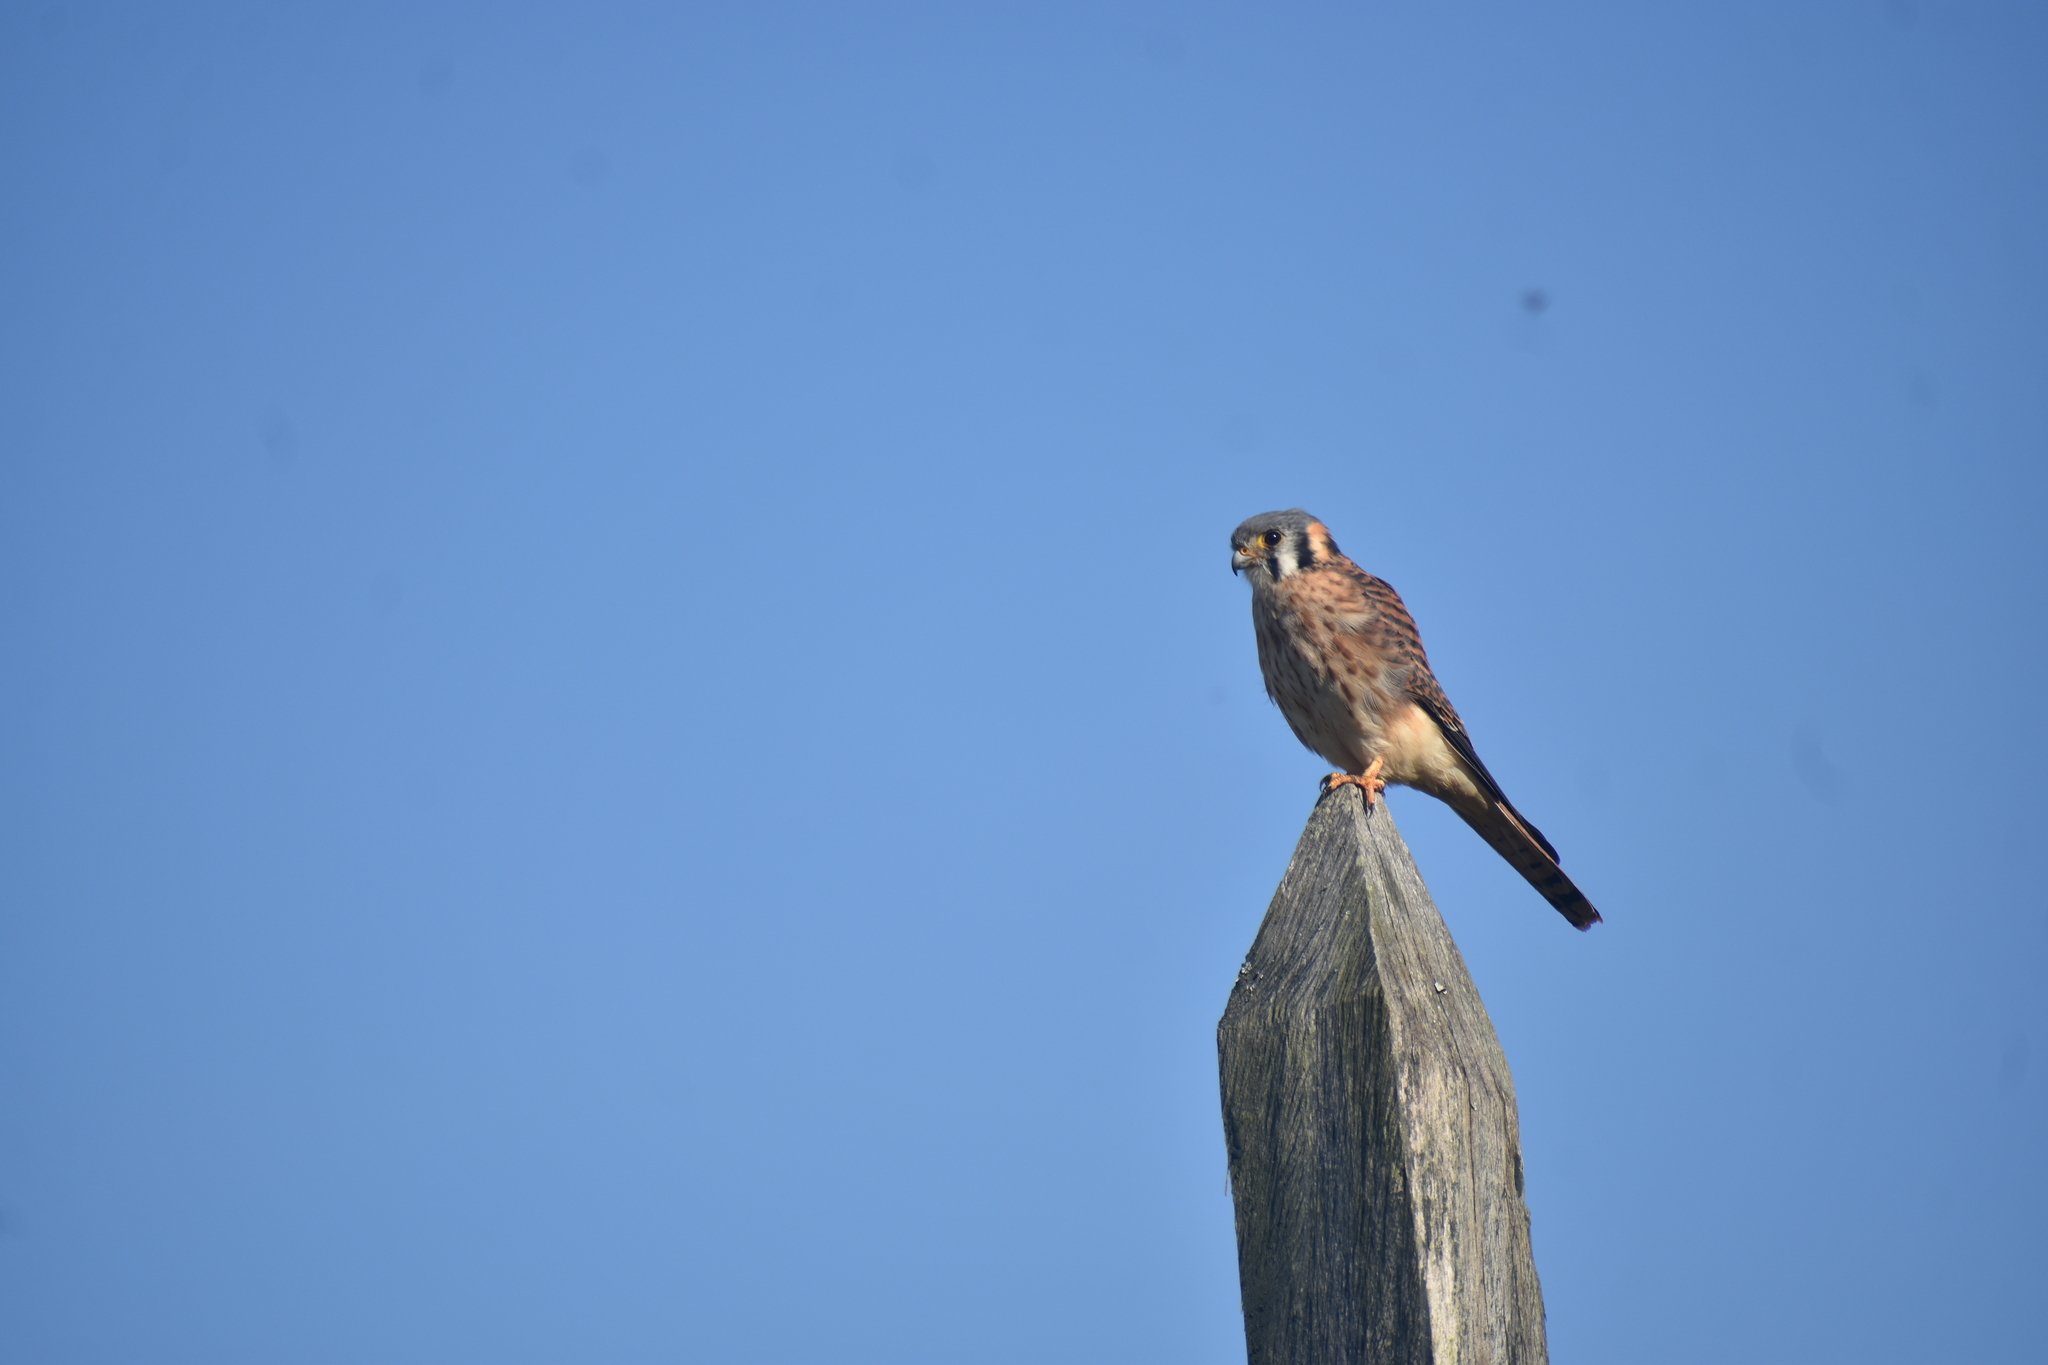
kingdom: Animalia
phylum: Chordata
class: Aves
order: Falconiformes
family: Falconidae
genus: Falco
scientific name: Falco sparverius
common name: American kestrel
